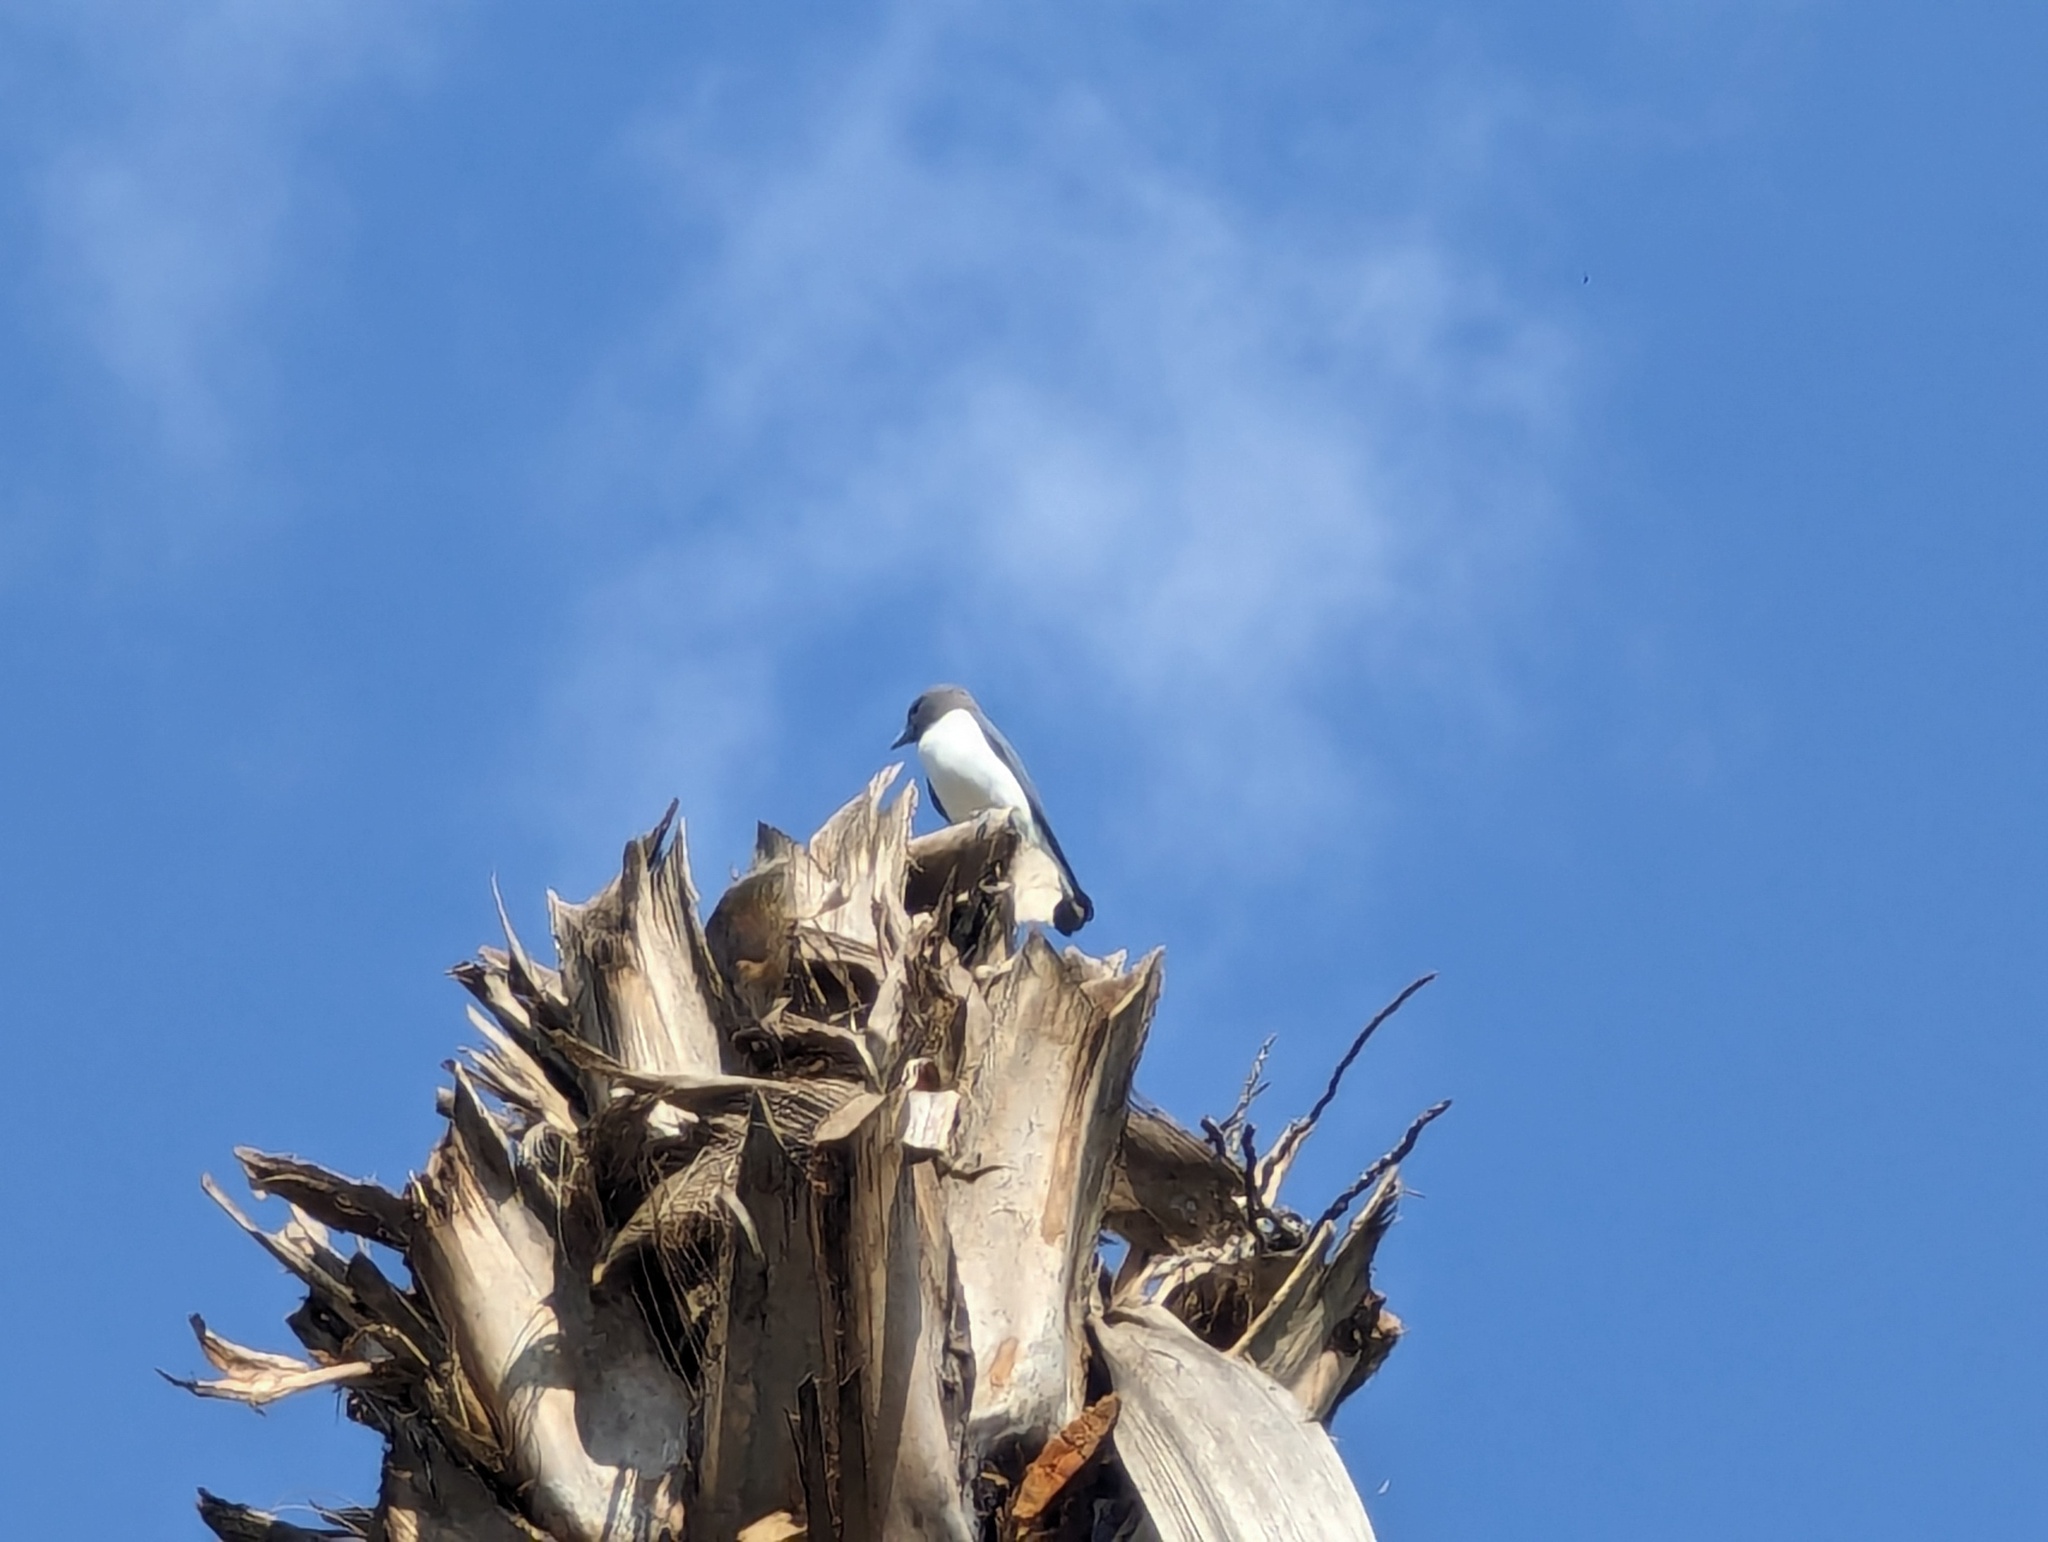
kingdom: Animalia
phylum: Chordata
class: Aves
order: Passeriformes
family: Artamidae
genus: Artamus
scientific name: Artamus leucoryn
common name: White-breasted woodswallow
